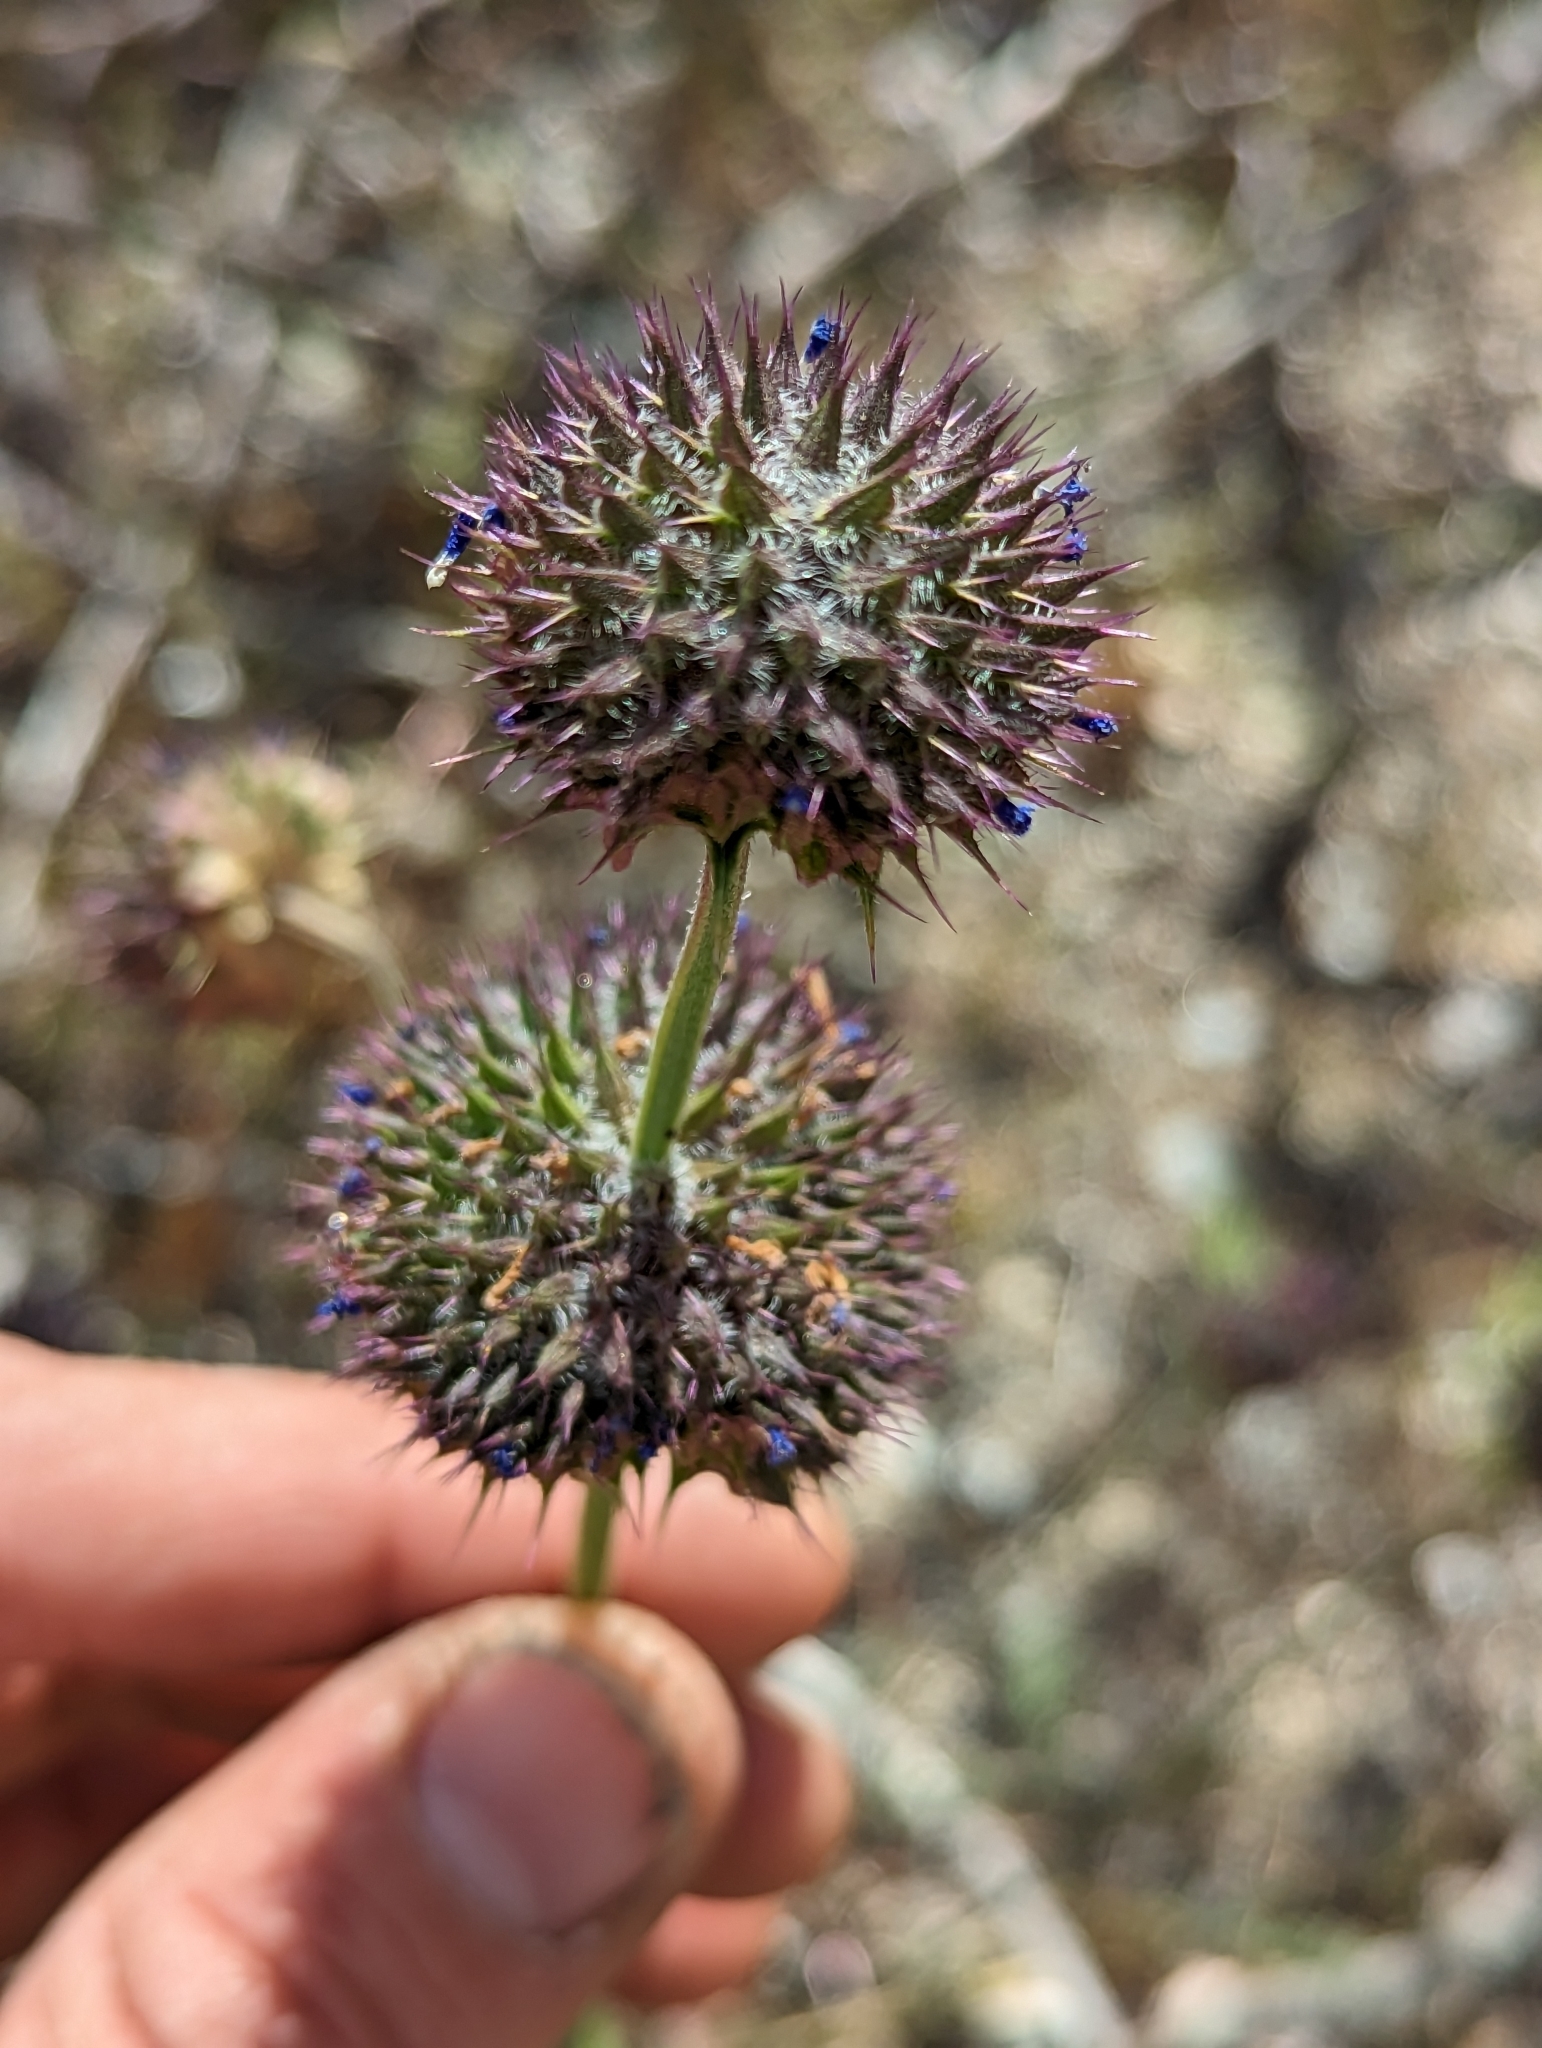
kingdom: Plantae
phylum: Tracheophyta
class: Magnoliopsida
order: Lamiales
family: Lamiaceae
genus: Salvia
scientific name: Salvia columbariae
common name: Chia
